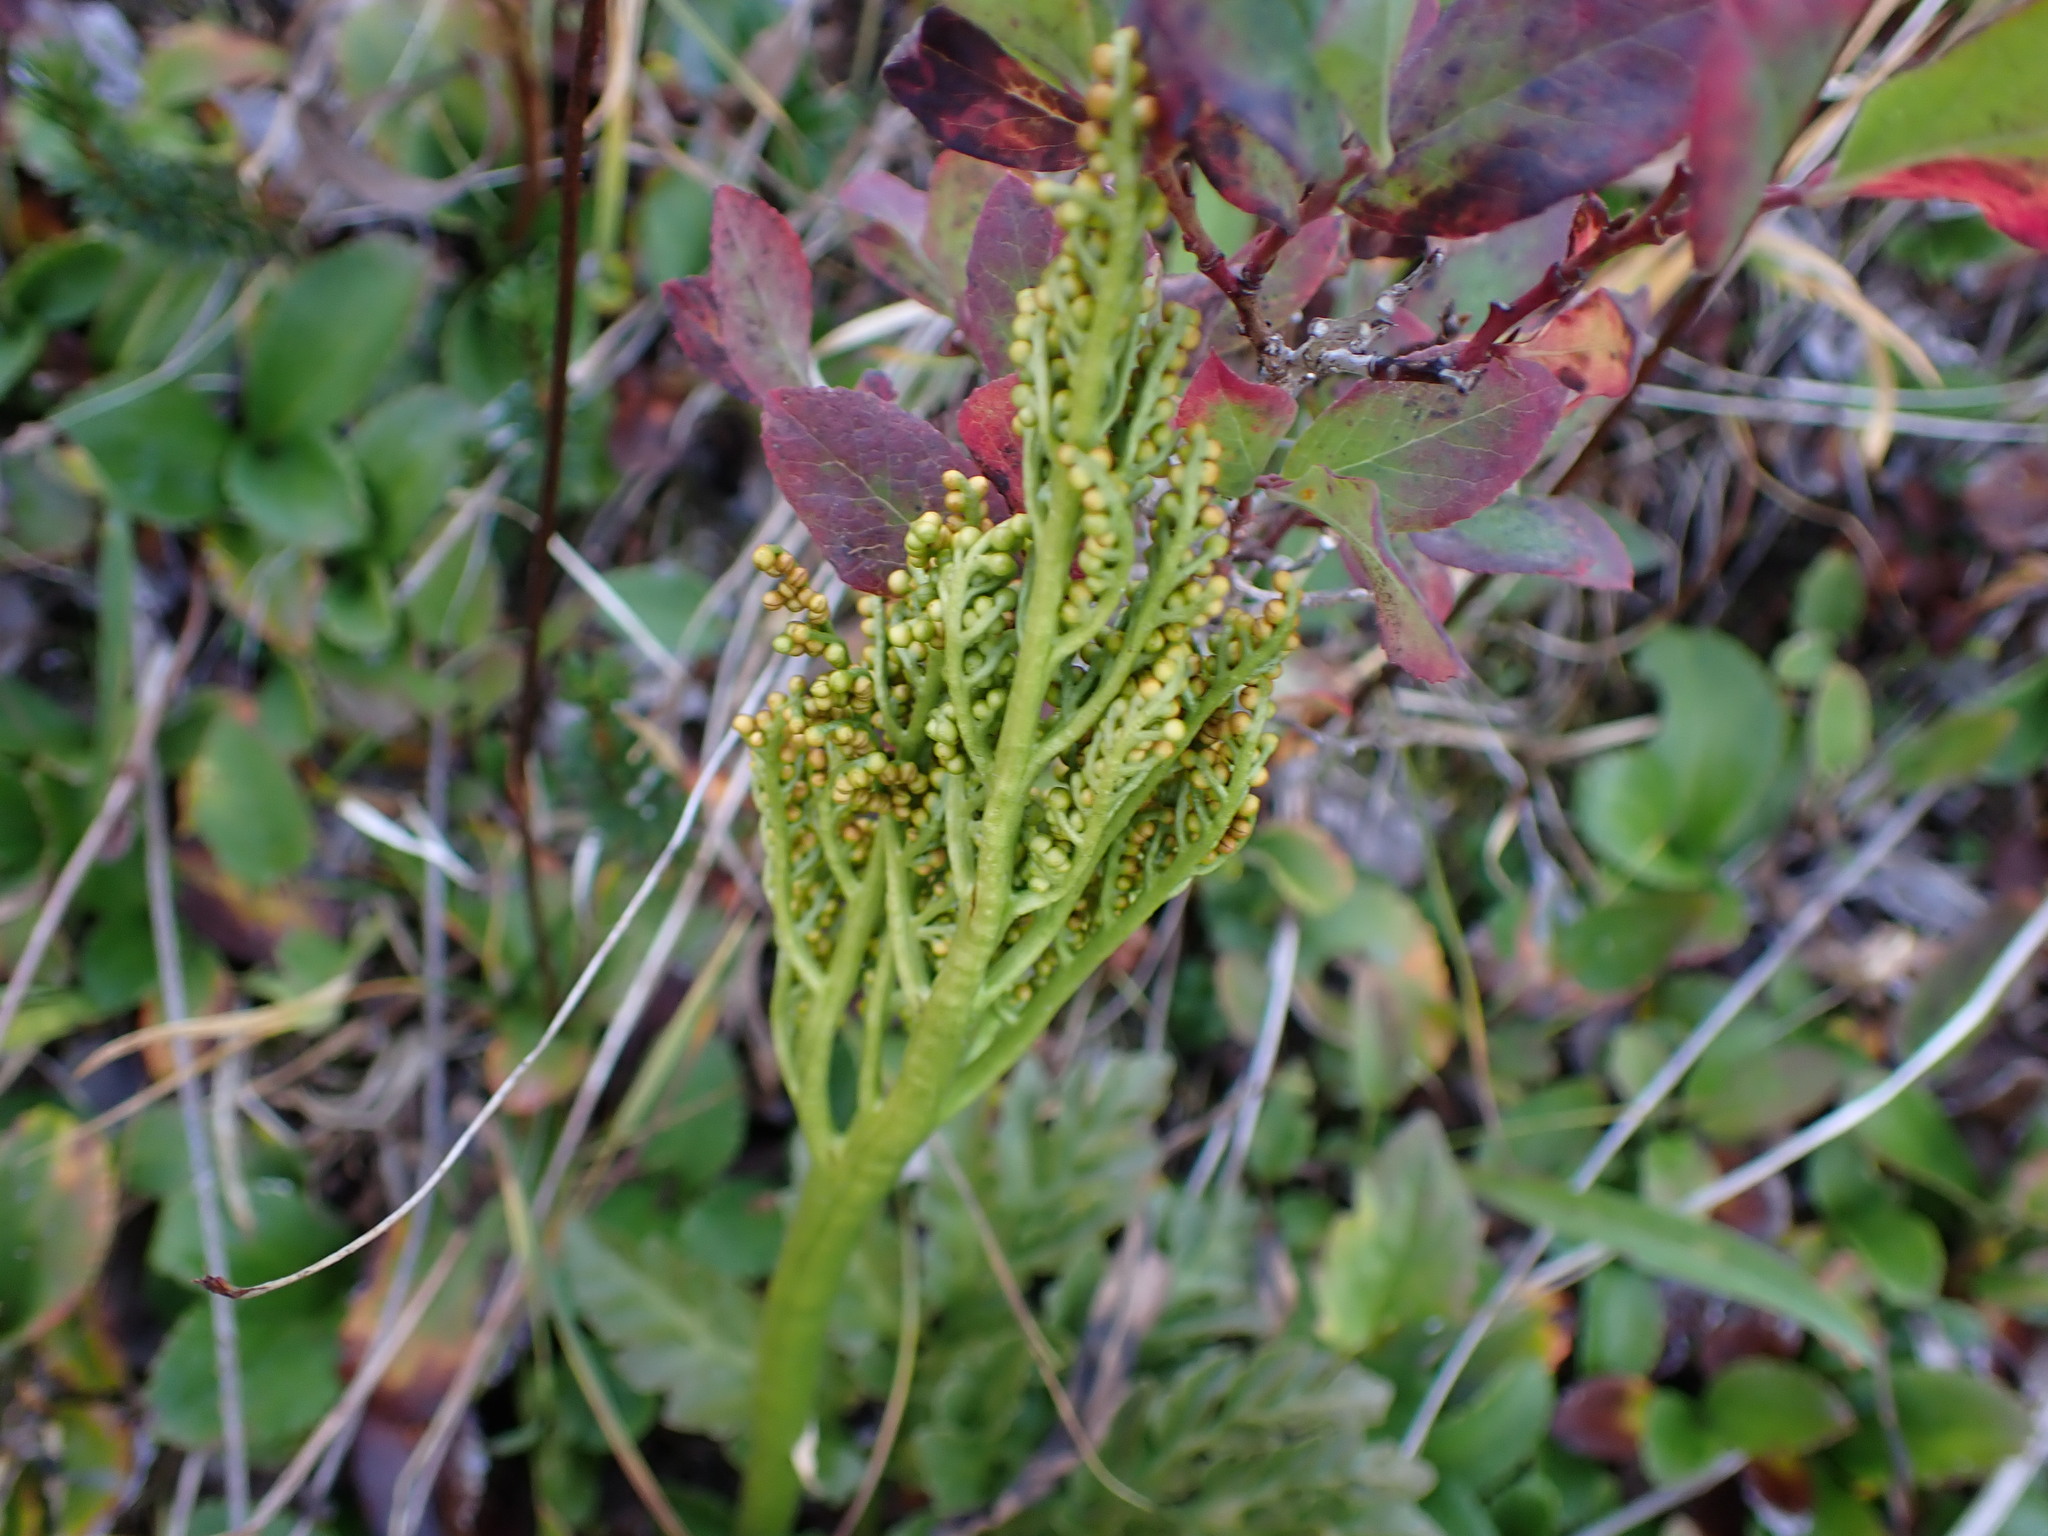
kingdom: Plantae
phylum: Tracheophyta
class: Polypodiopsida
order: Ophioglossales
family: Ophioglossaceae
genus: Sceptridium
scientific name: Sceptridium multifidum
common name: Leathery grape fern
